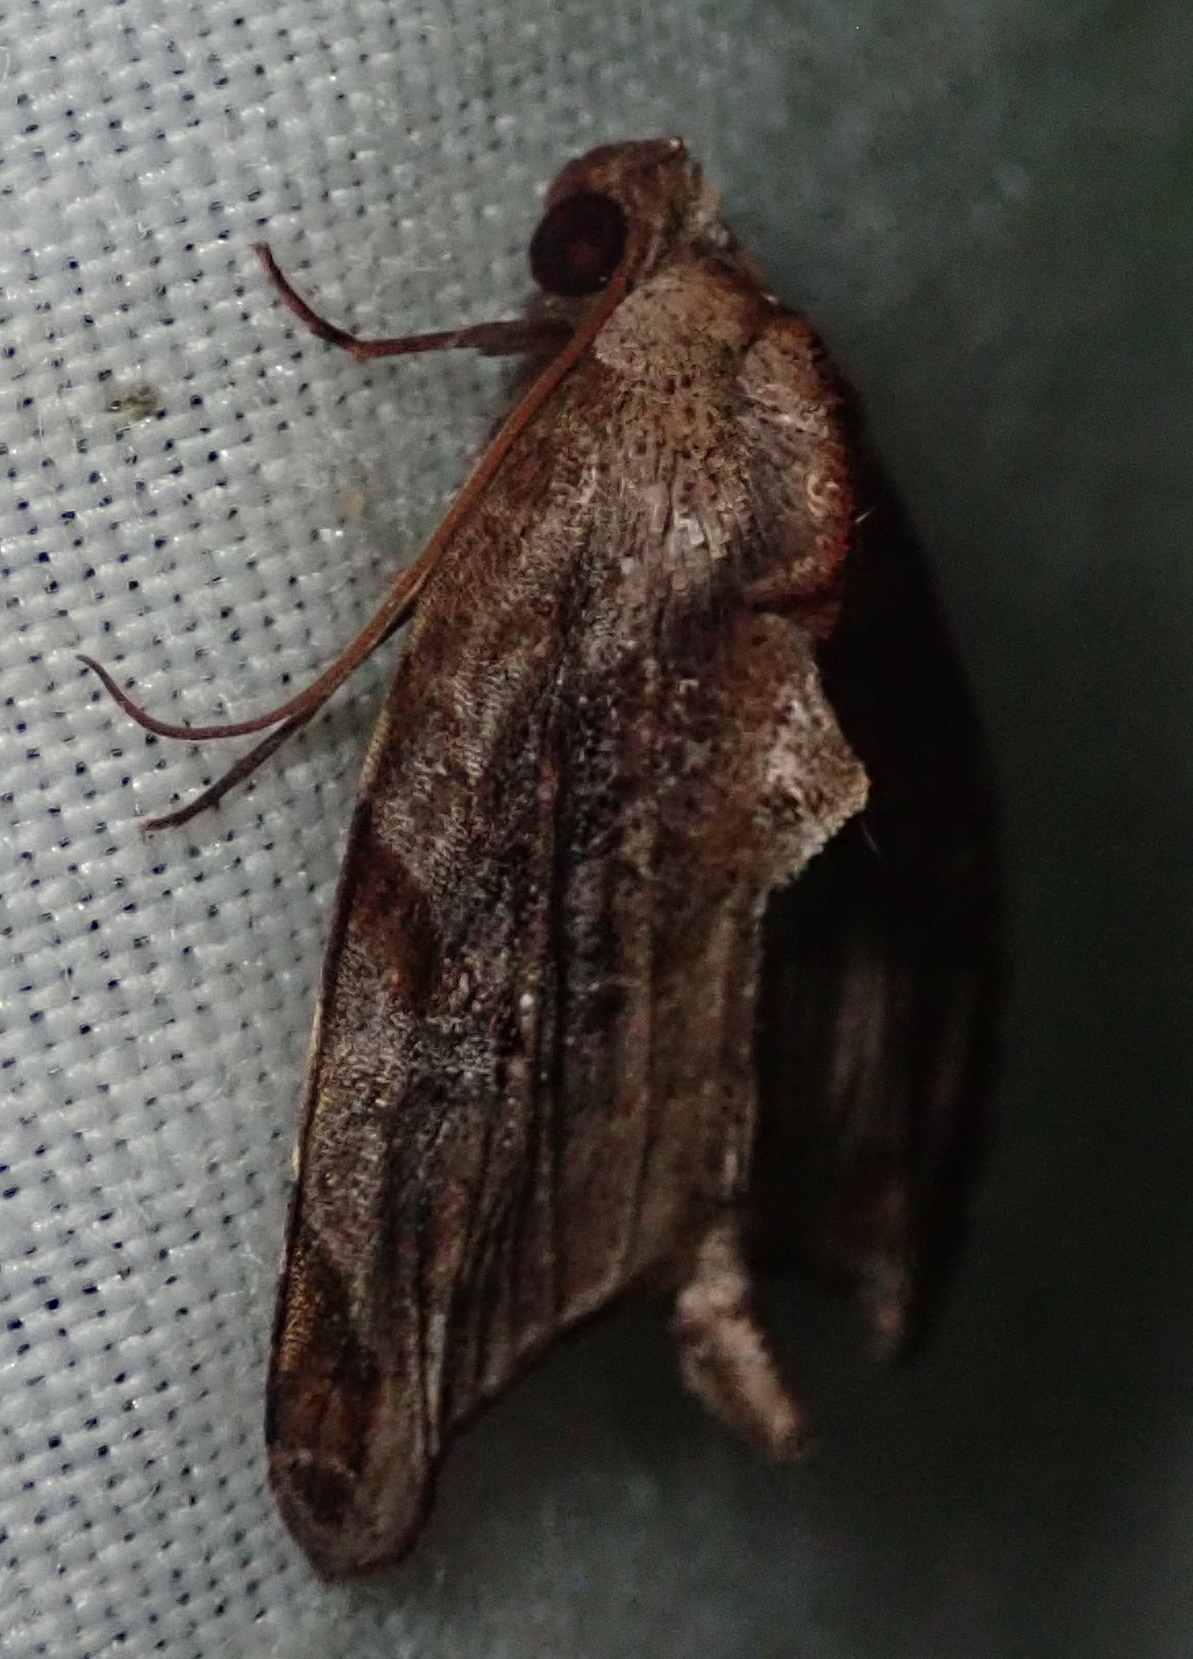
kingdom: Animalia
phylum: Arthropoda
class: Insecta
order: Lepidoptera
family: Noctuidae
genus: Androlymnia
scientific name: Androlymnia torsivena
